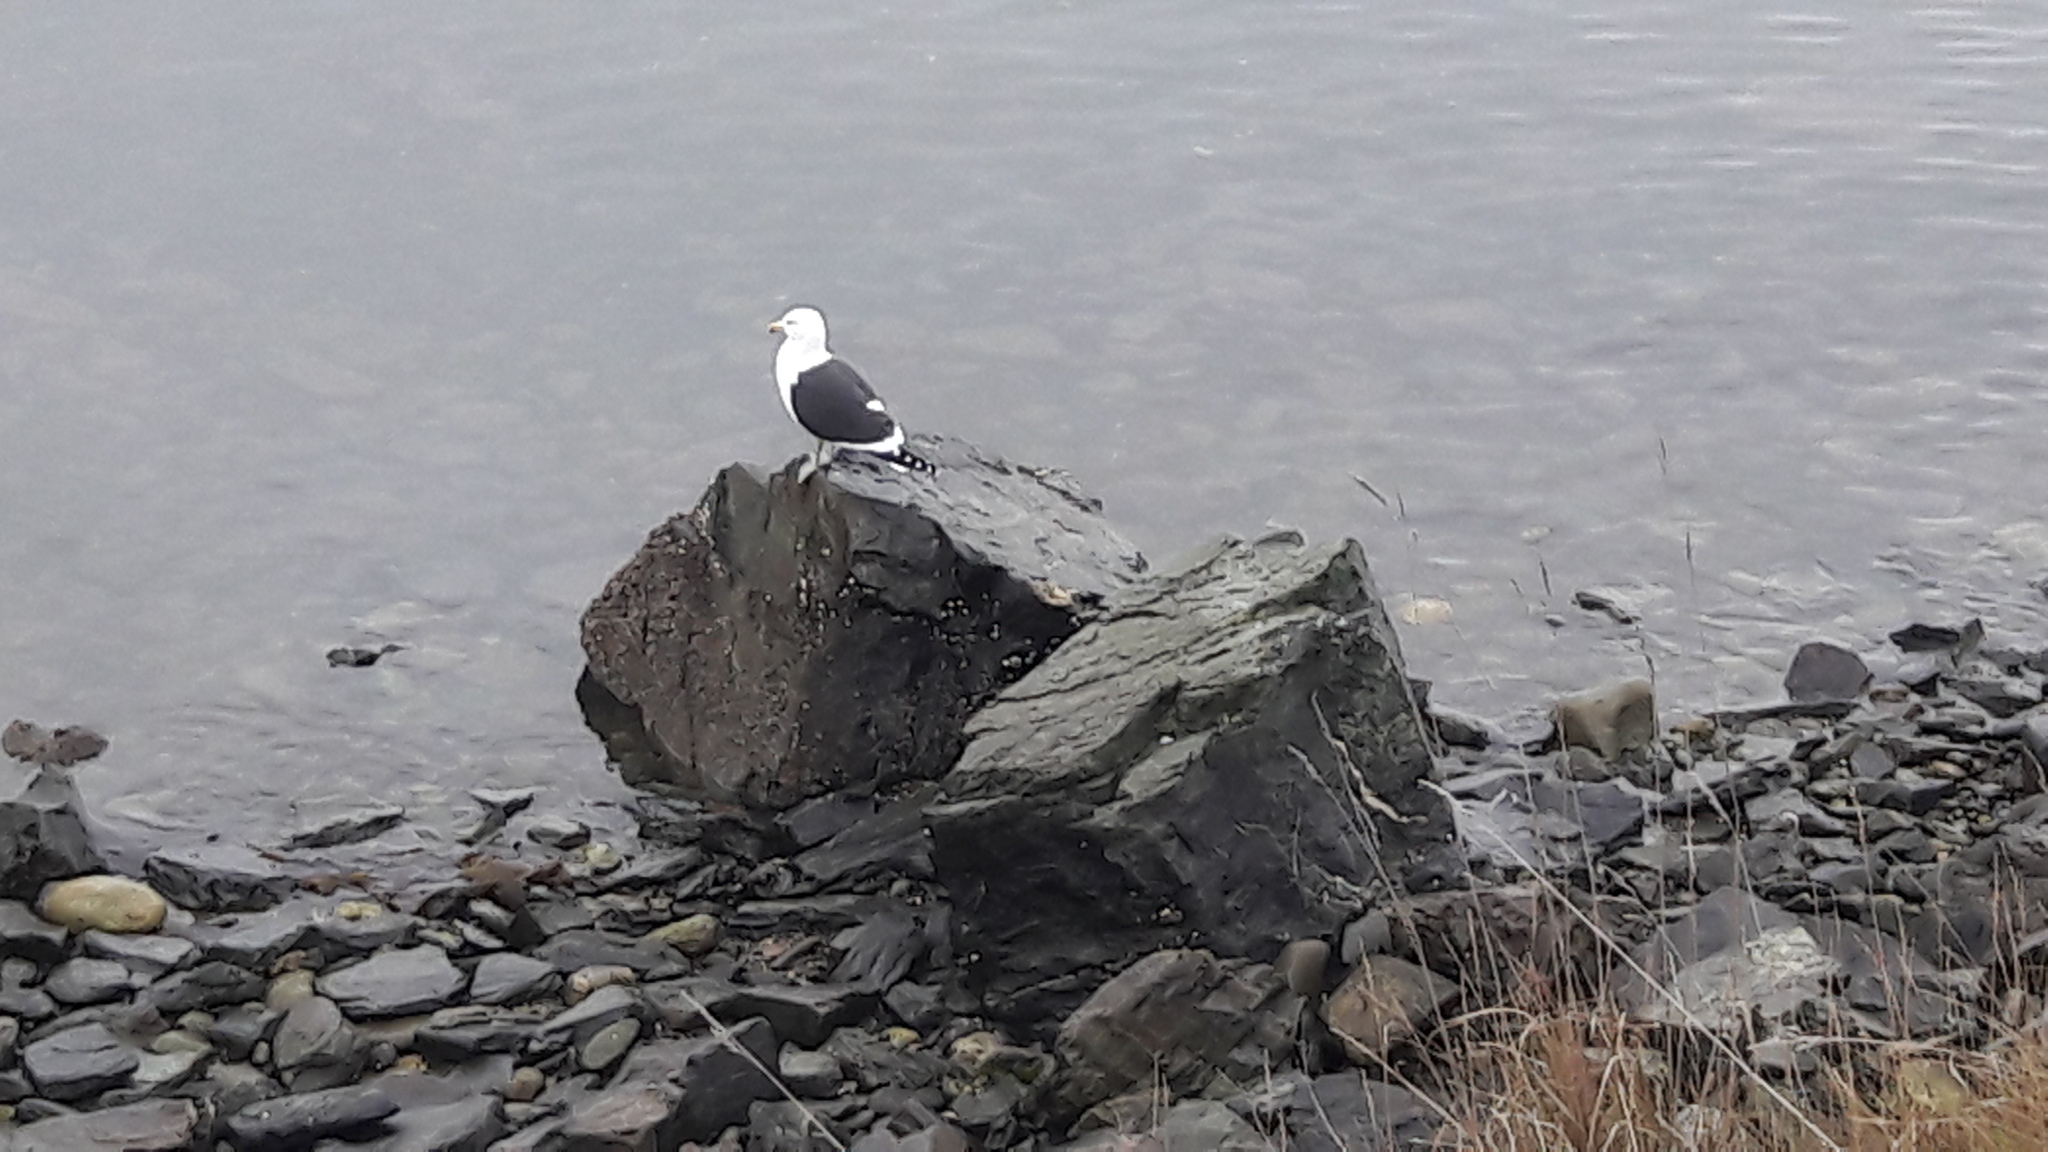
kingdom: Animalia
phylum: Chordata
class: Aves
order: Charadriiformes
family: Laridae
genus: Larus
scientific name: Larus dominicanus
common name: Kelp gull
